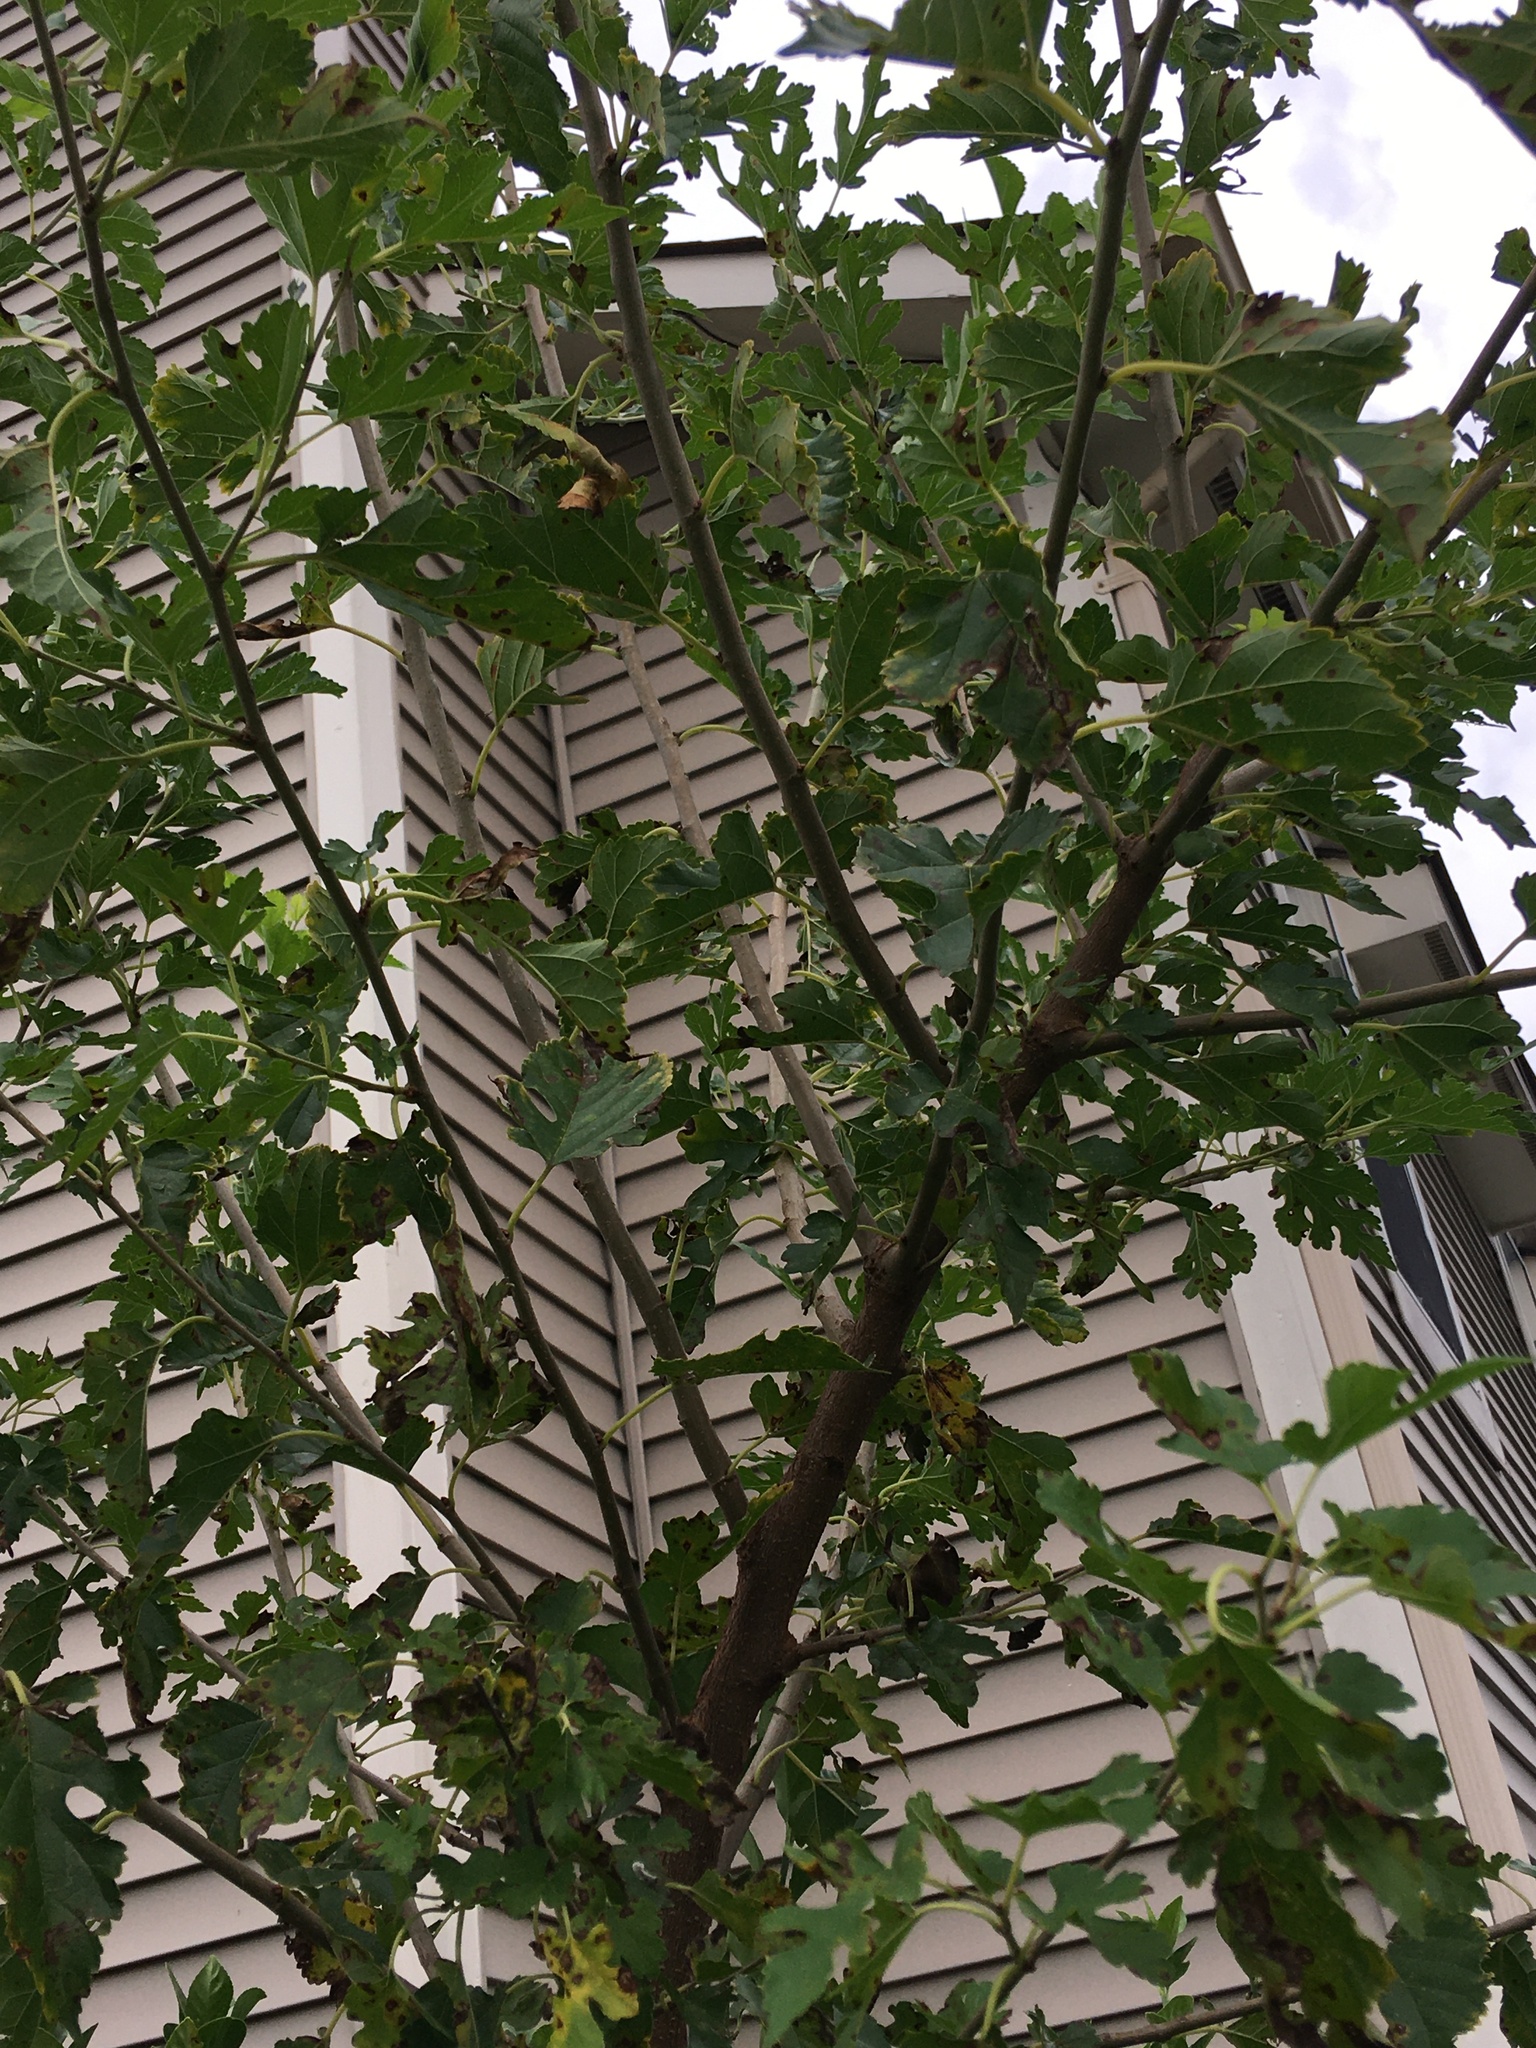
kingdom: Plantae
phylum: Tracheophyta
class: Magnoliopsida
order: Rosales
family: Moraceae
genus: Morus
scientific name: Morus alba
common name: White mulberry
